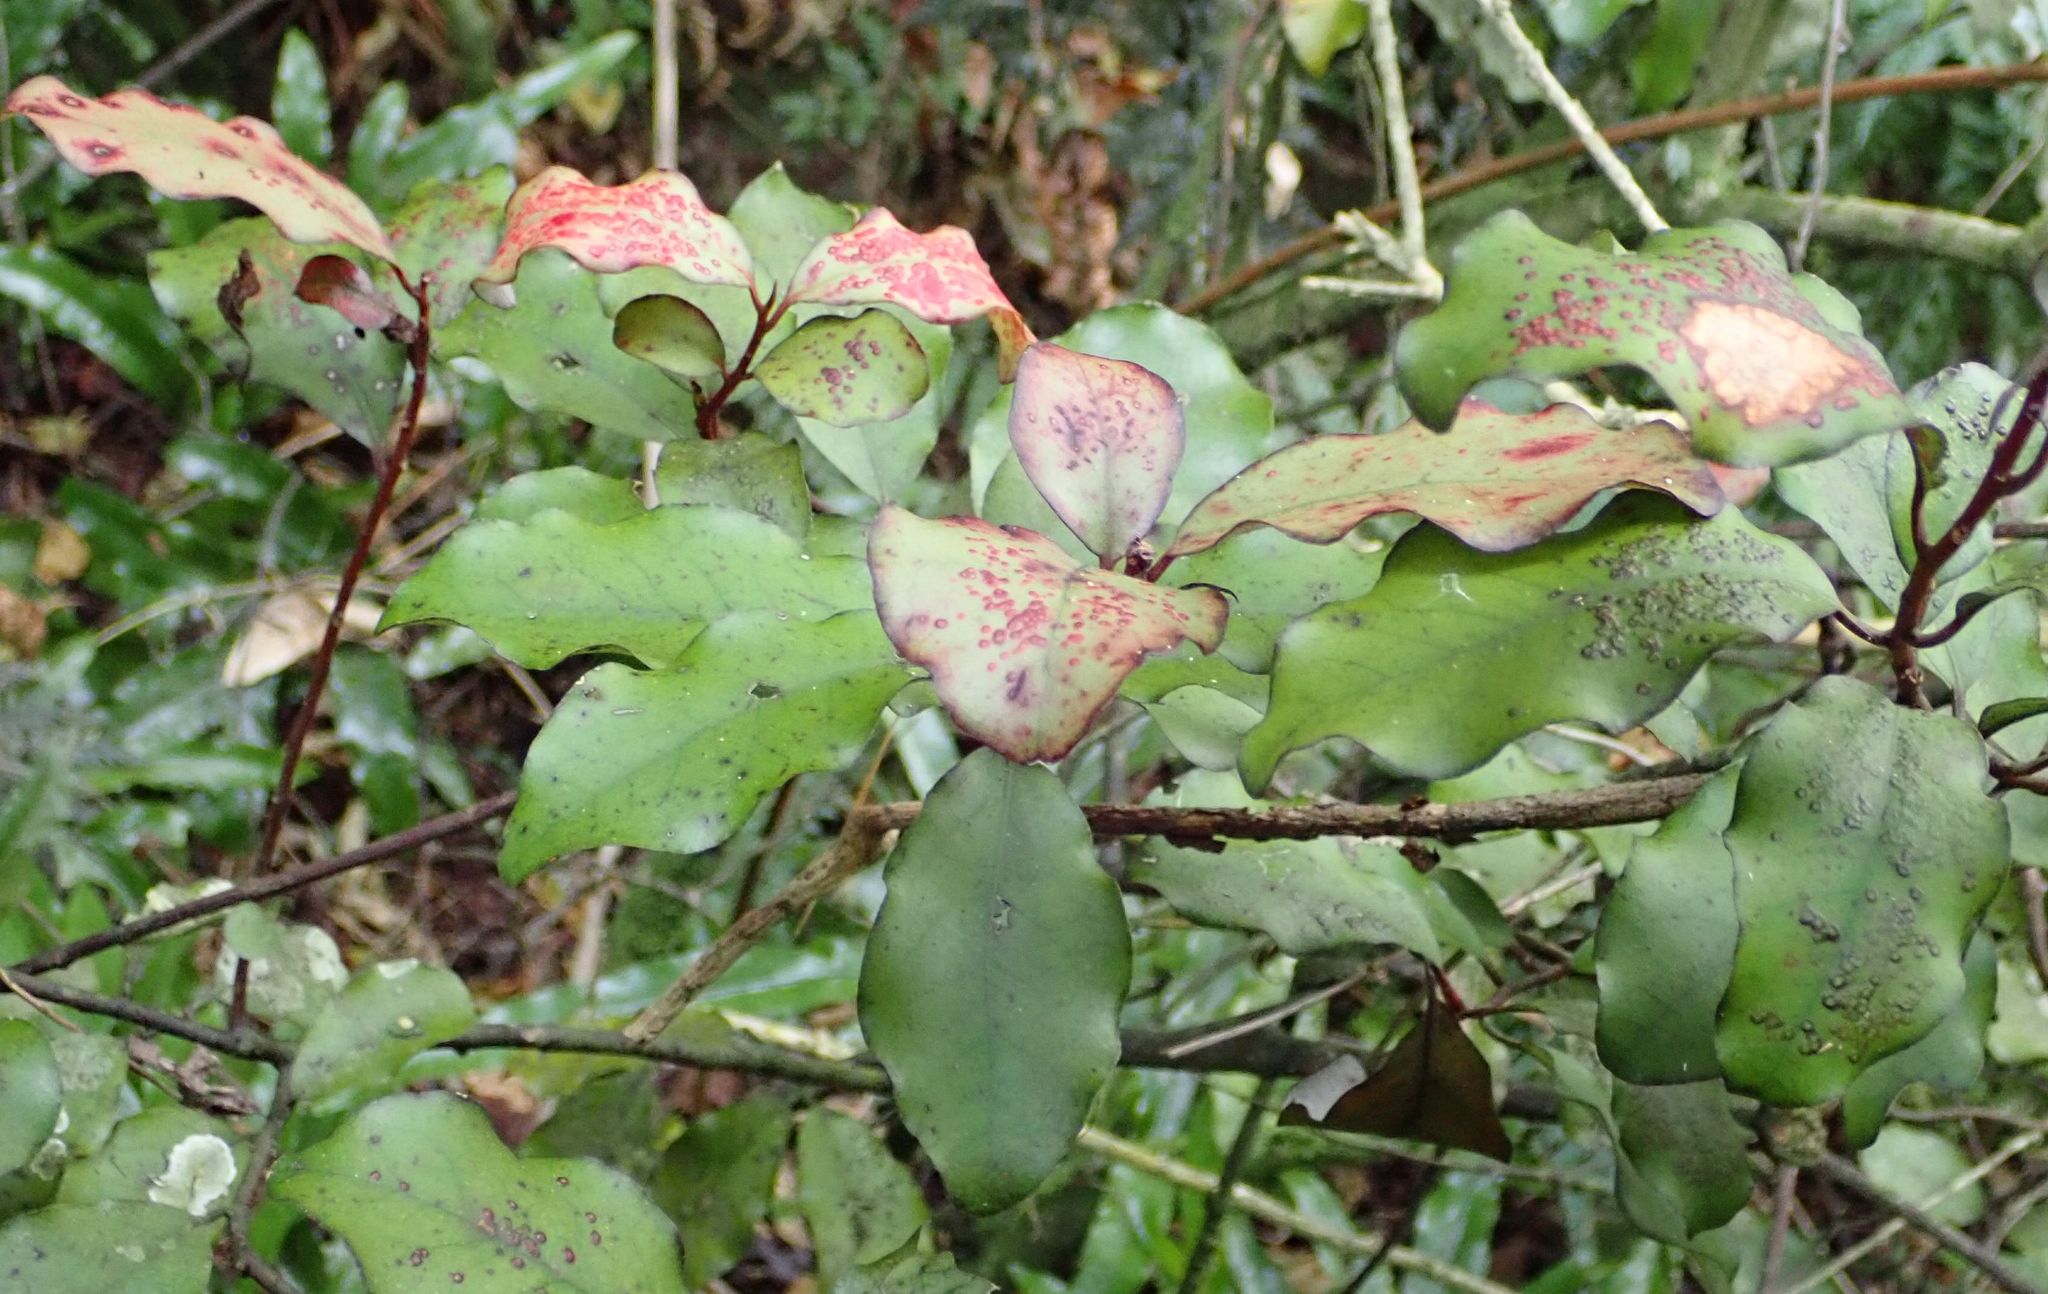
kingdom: Plantae
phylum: Tracheophyta
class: Magnoliopsida
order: Canellales
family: Winteraceae
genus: Pseudowintera
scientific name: Pseudowintera colorata
